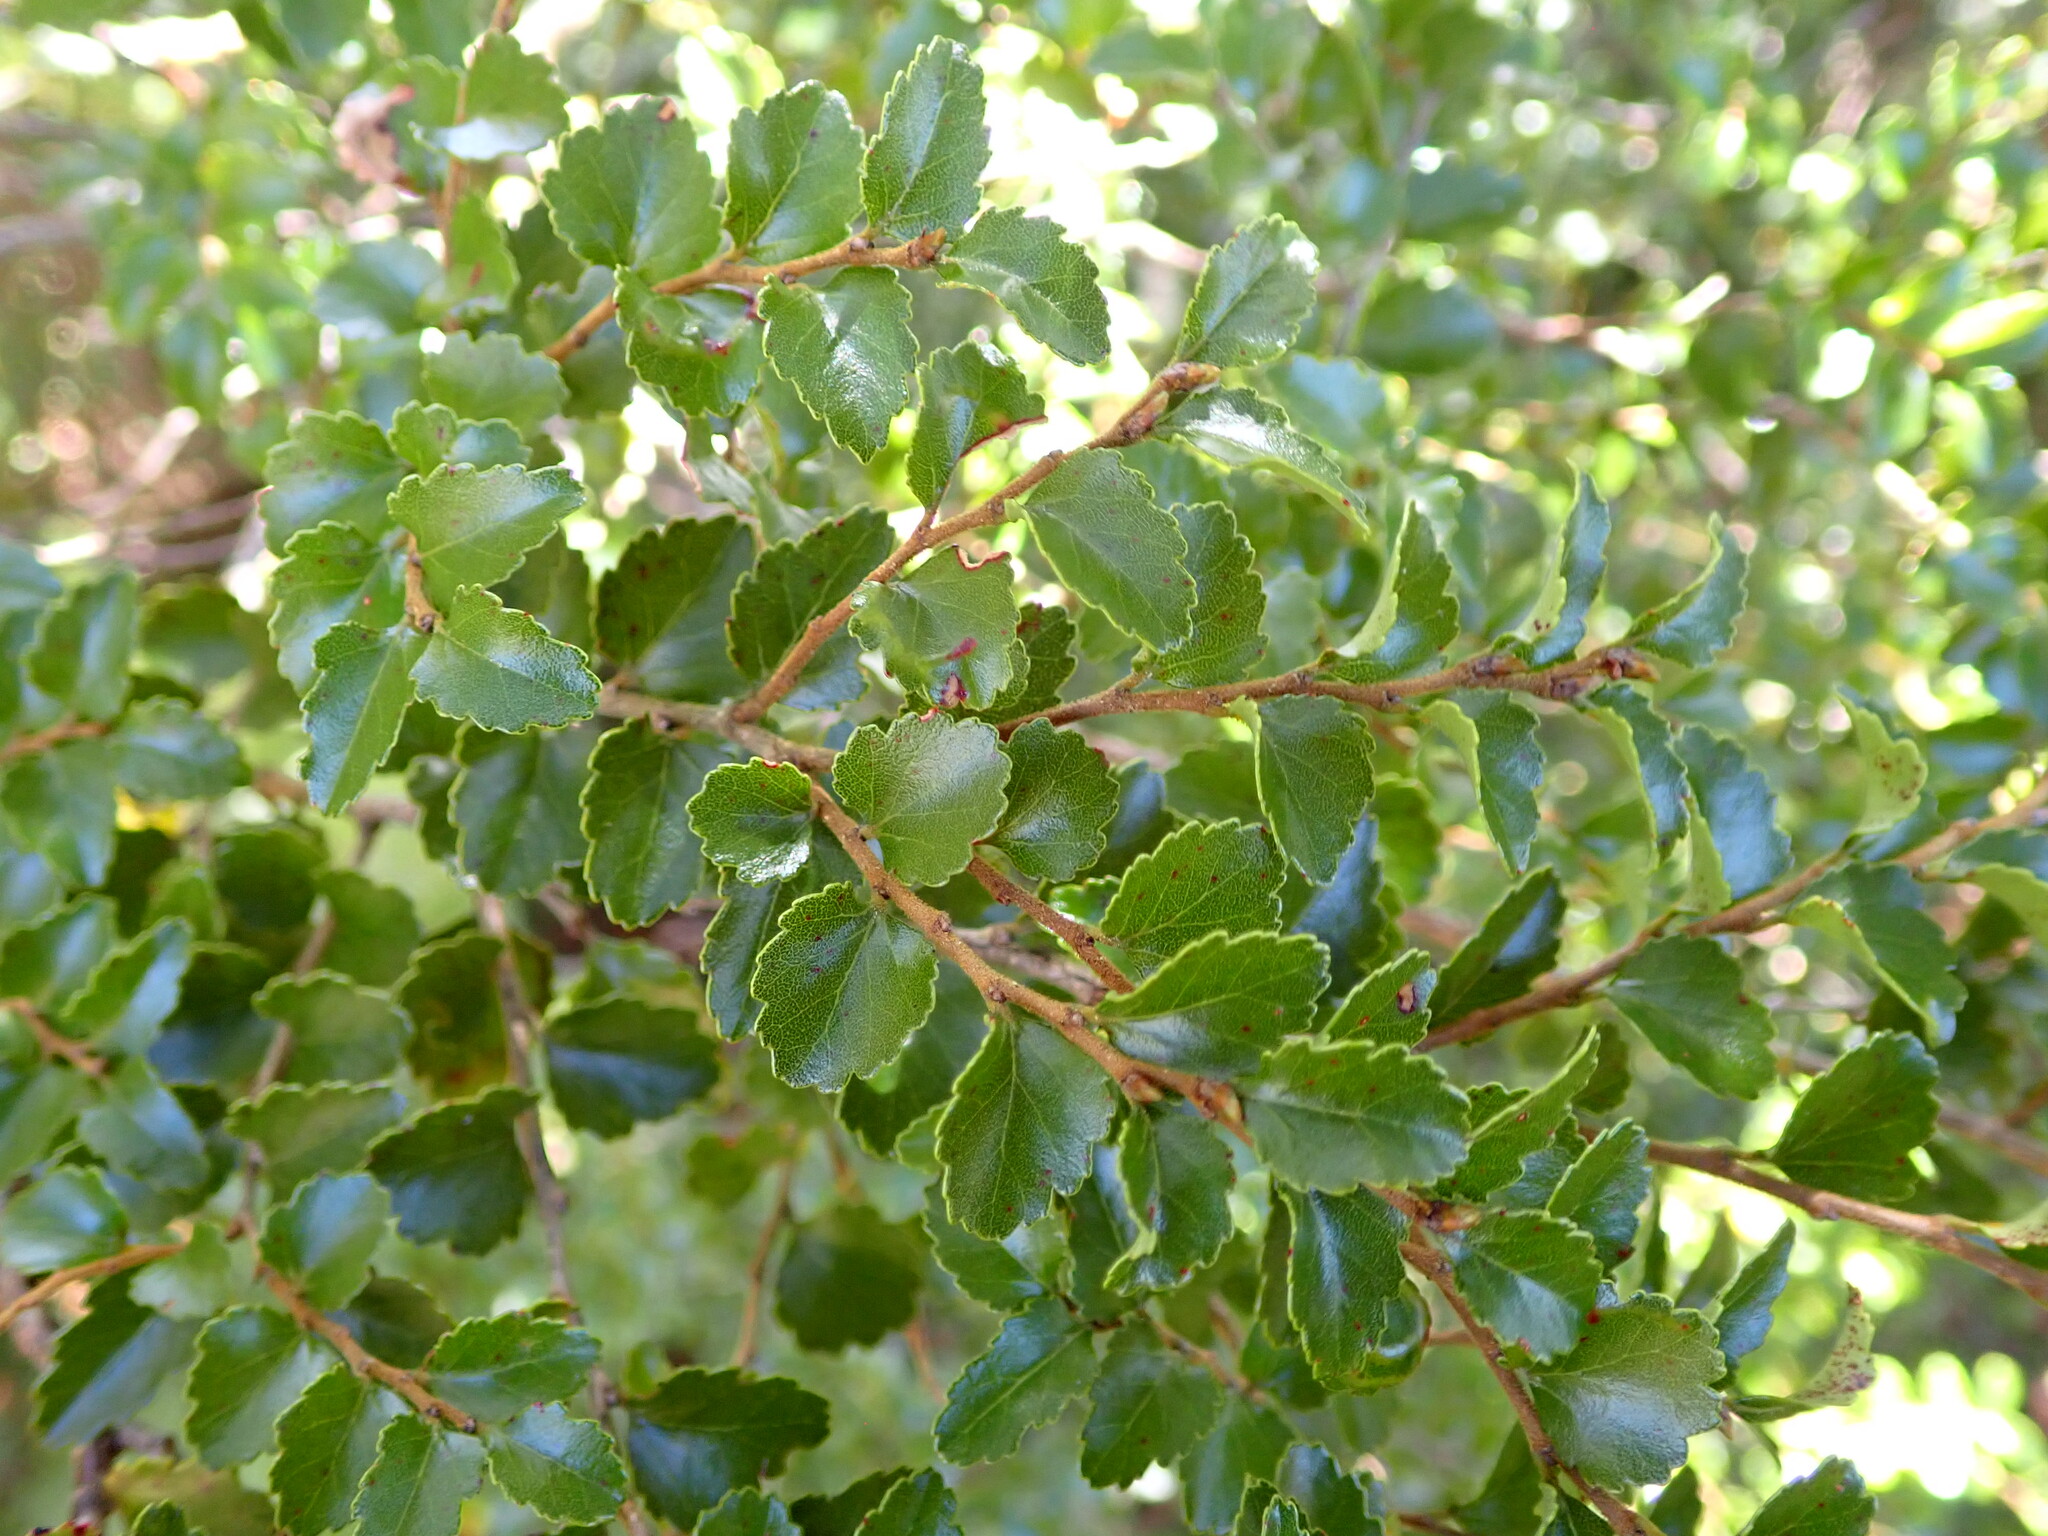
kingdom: Plantae
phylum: Tracheophyta
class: Magnoliopsida
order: Fagales
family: Nothofagaceae
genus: Nothofagus
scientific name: Nothofagus menziesii
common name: Silver beech
